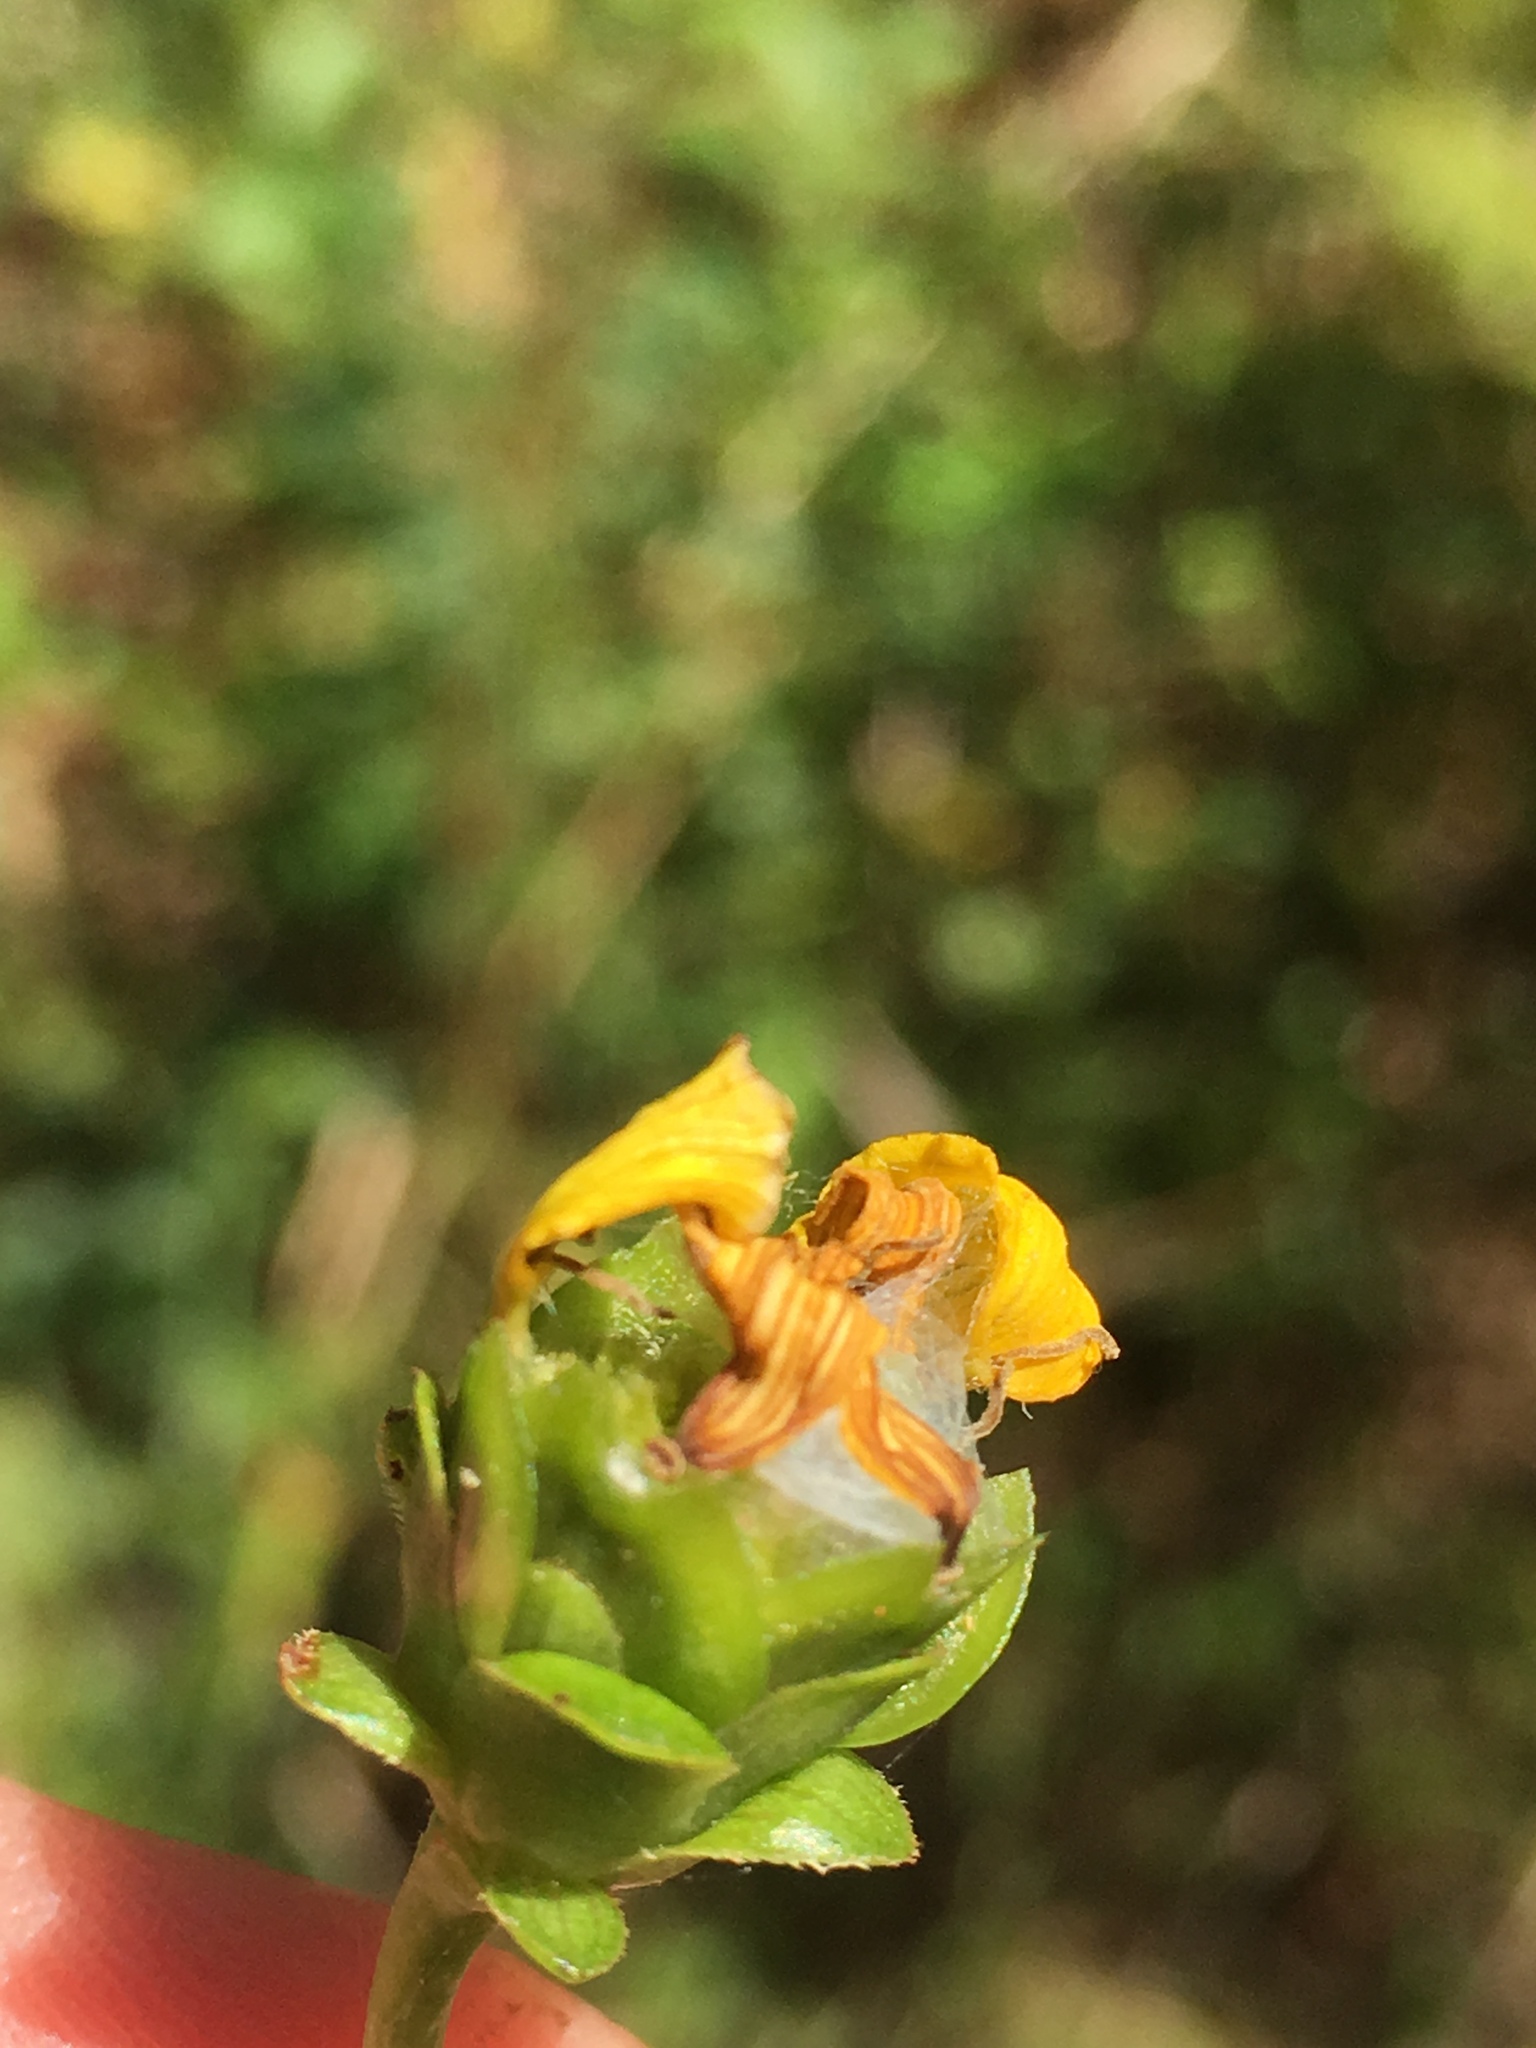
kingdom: Plantae
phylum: Tracheophyta
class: Magnoliopsida
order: Asterales
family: Asteraceae
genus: Silphium
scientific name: Silphium compositum
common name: Lesser basal-leaf rosinweed
